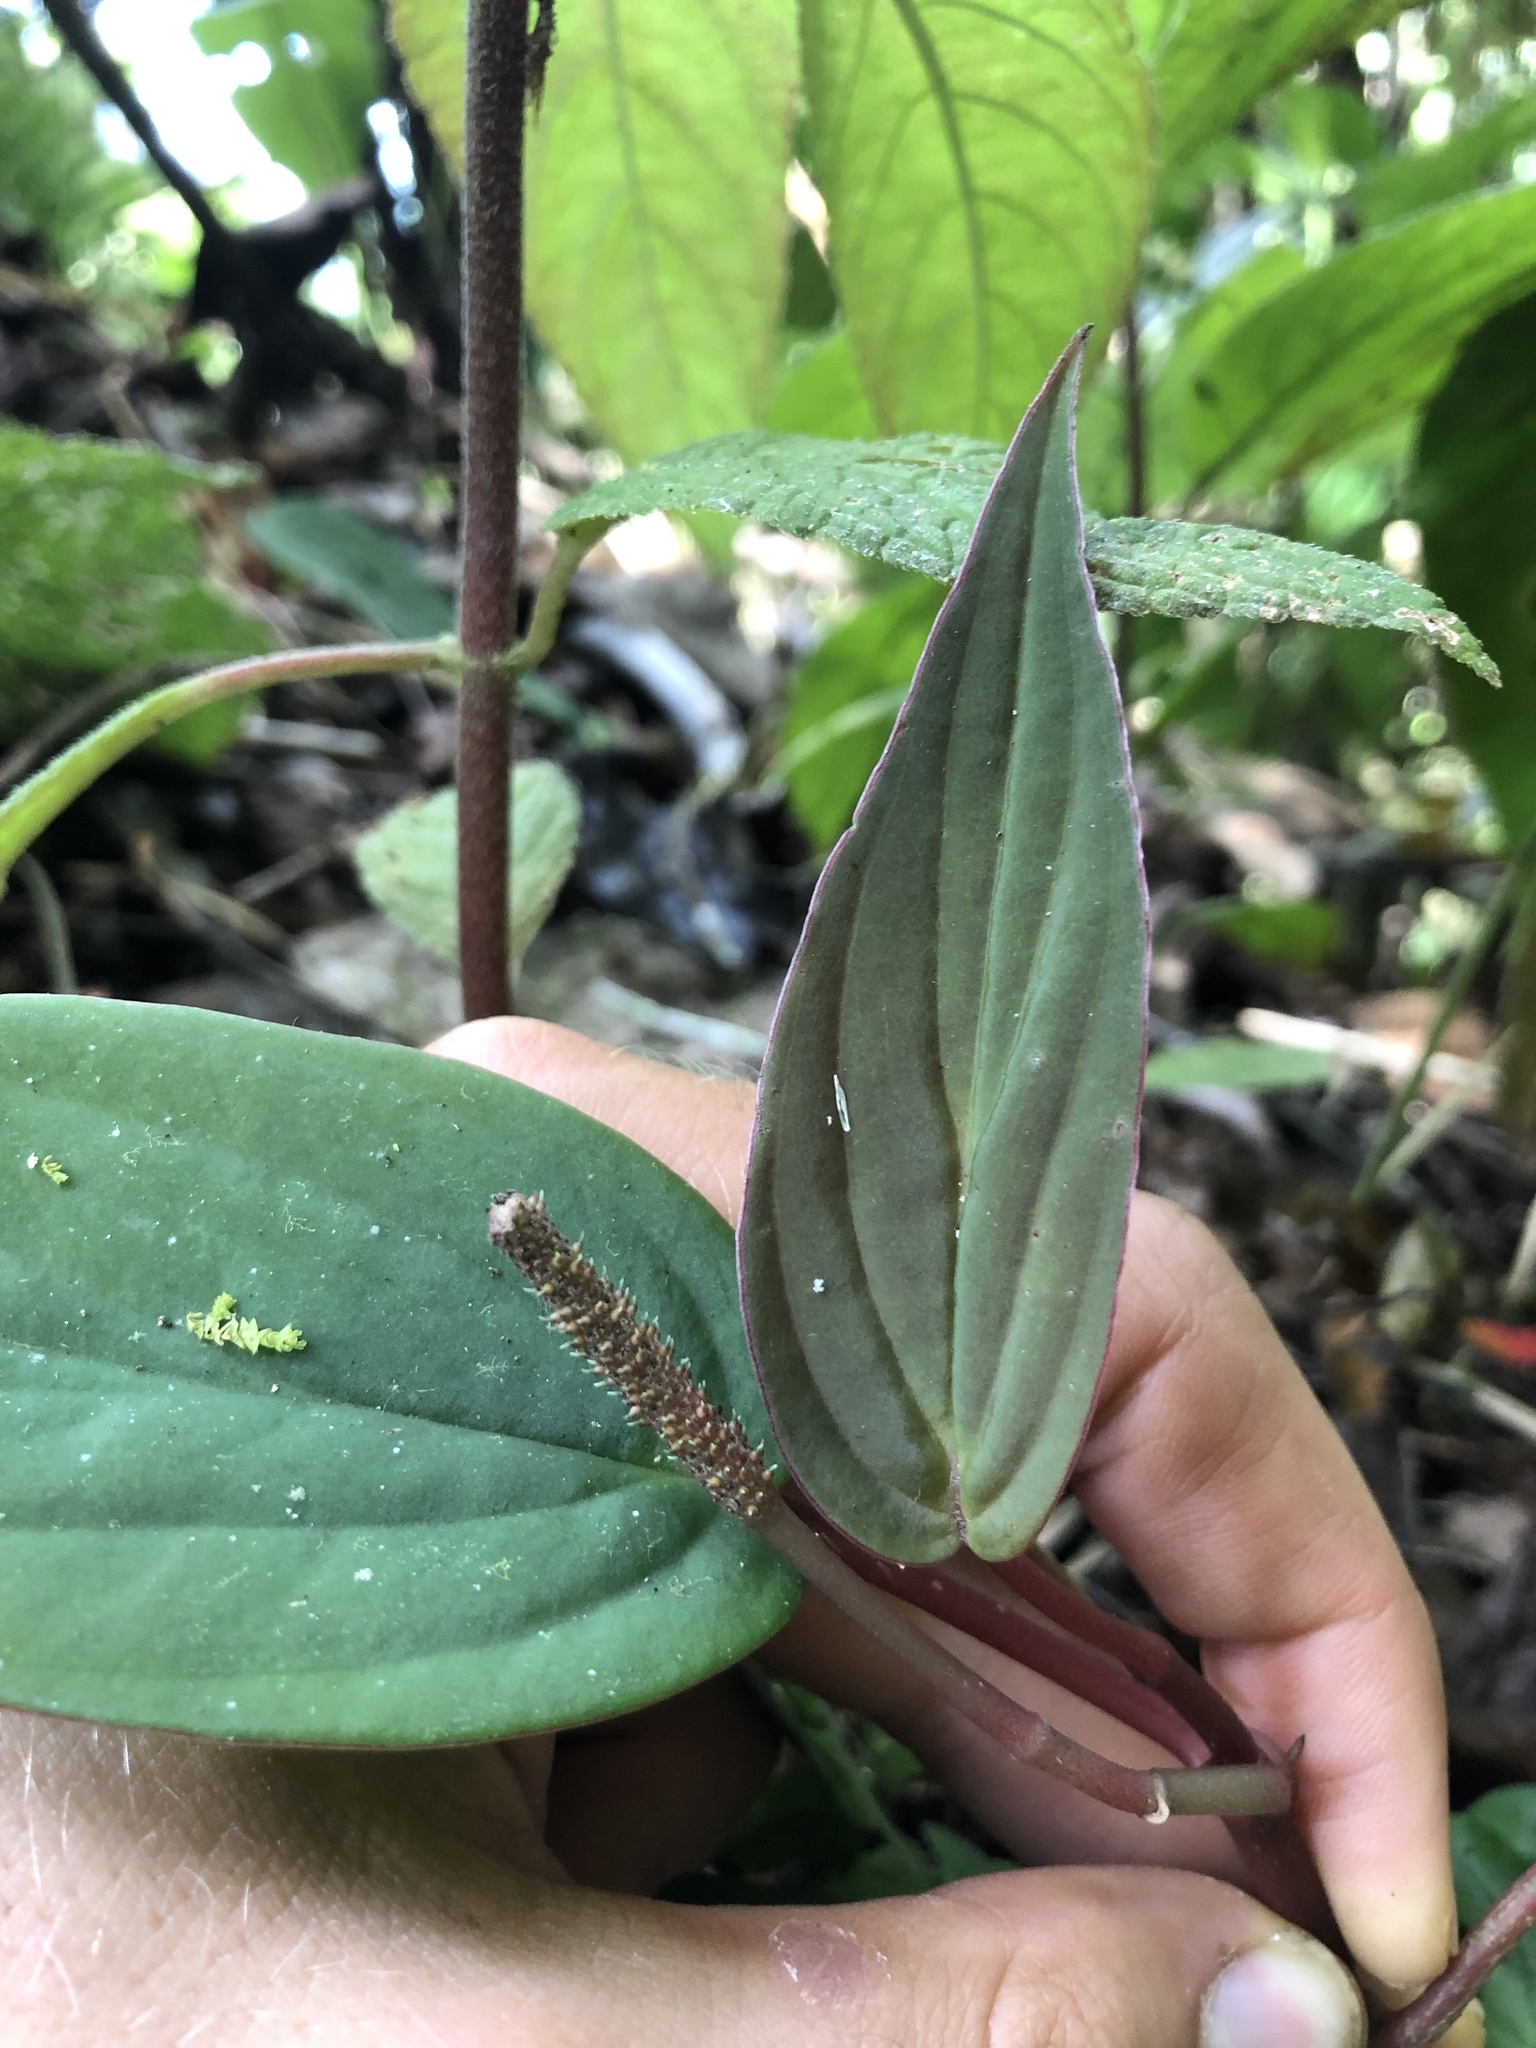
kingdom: Plantae
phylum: Tracheophyta
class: Magnoliopsida
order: Piperales
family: Piperaceae
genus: Peperomia
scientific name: Peperomia sympodialis
